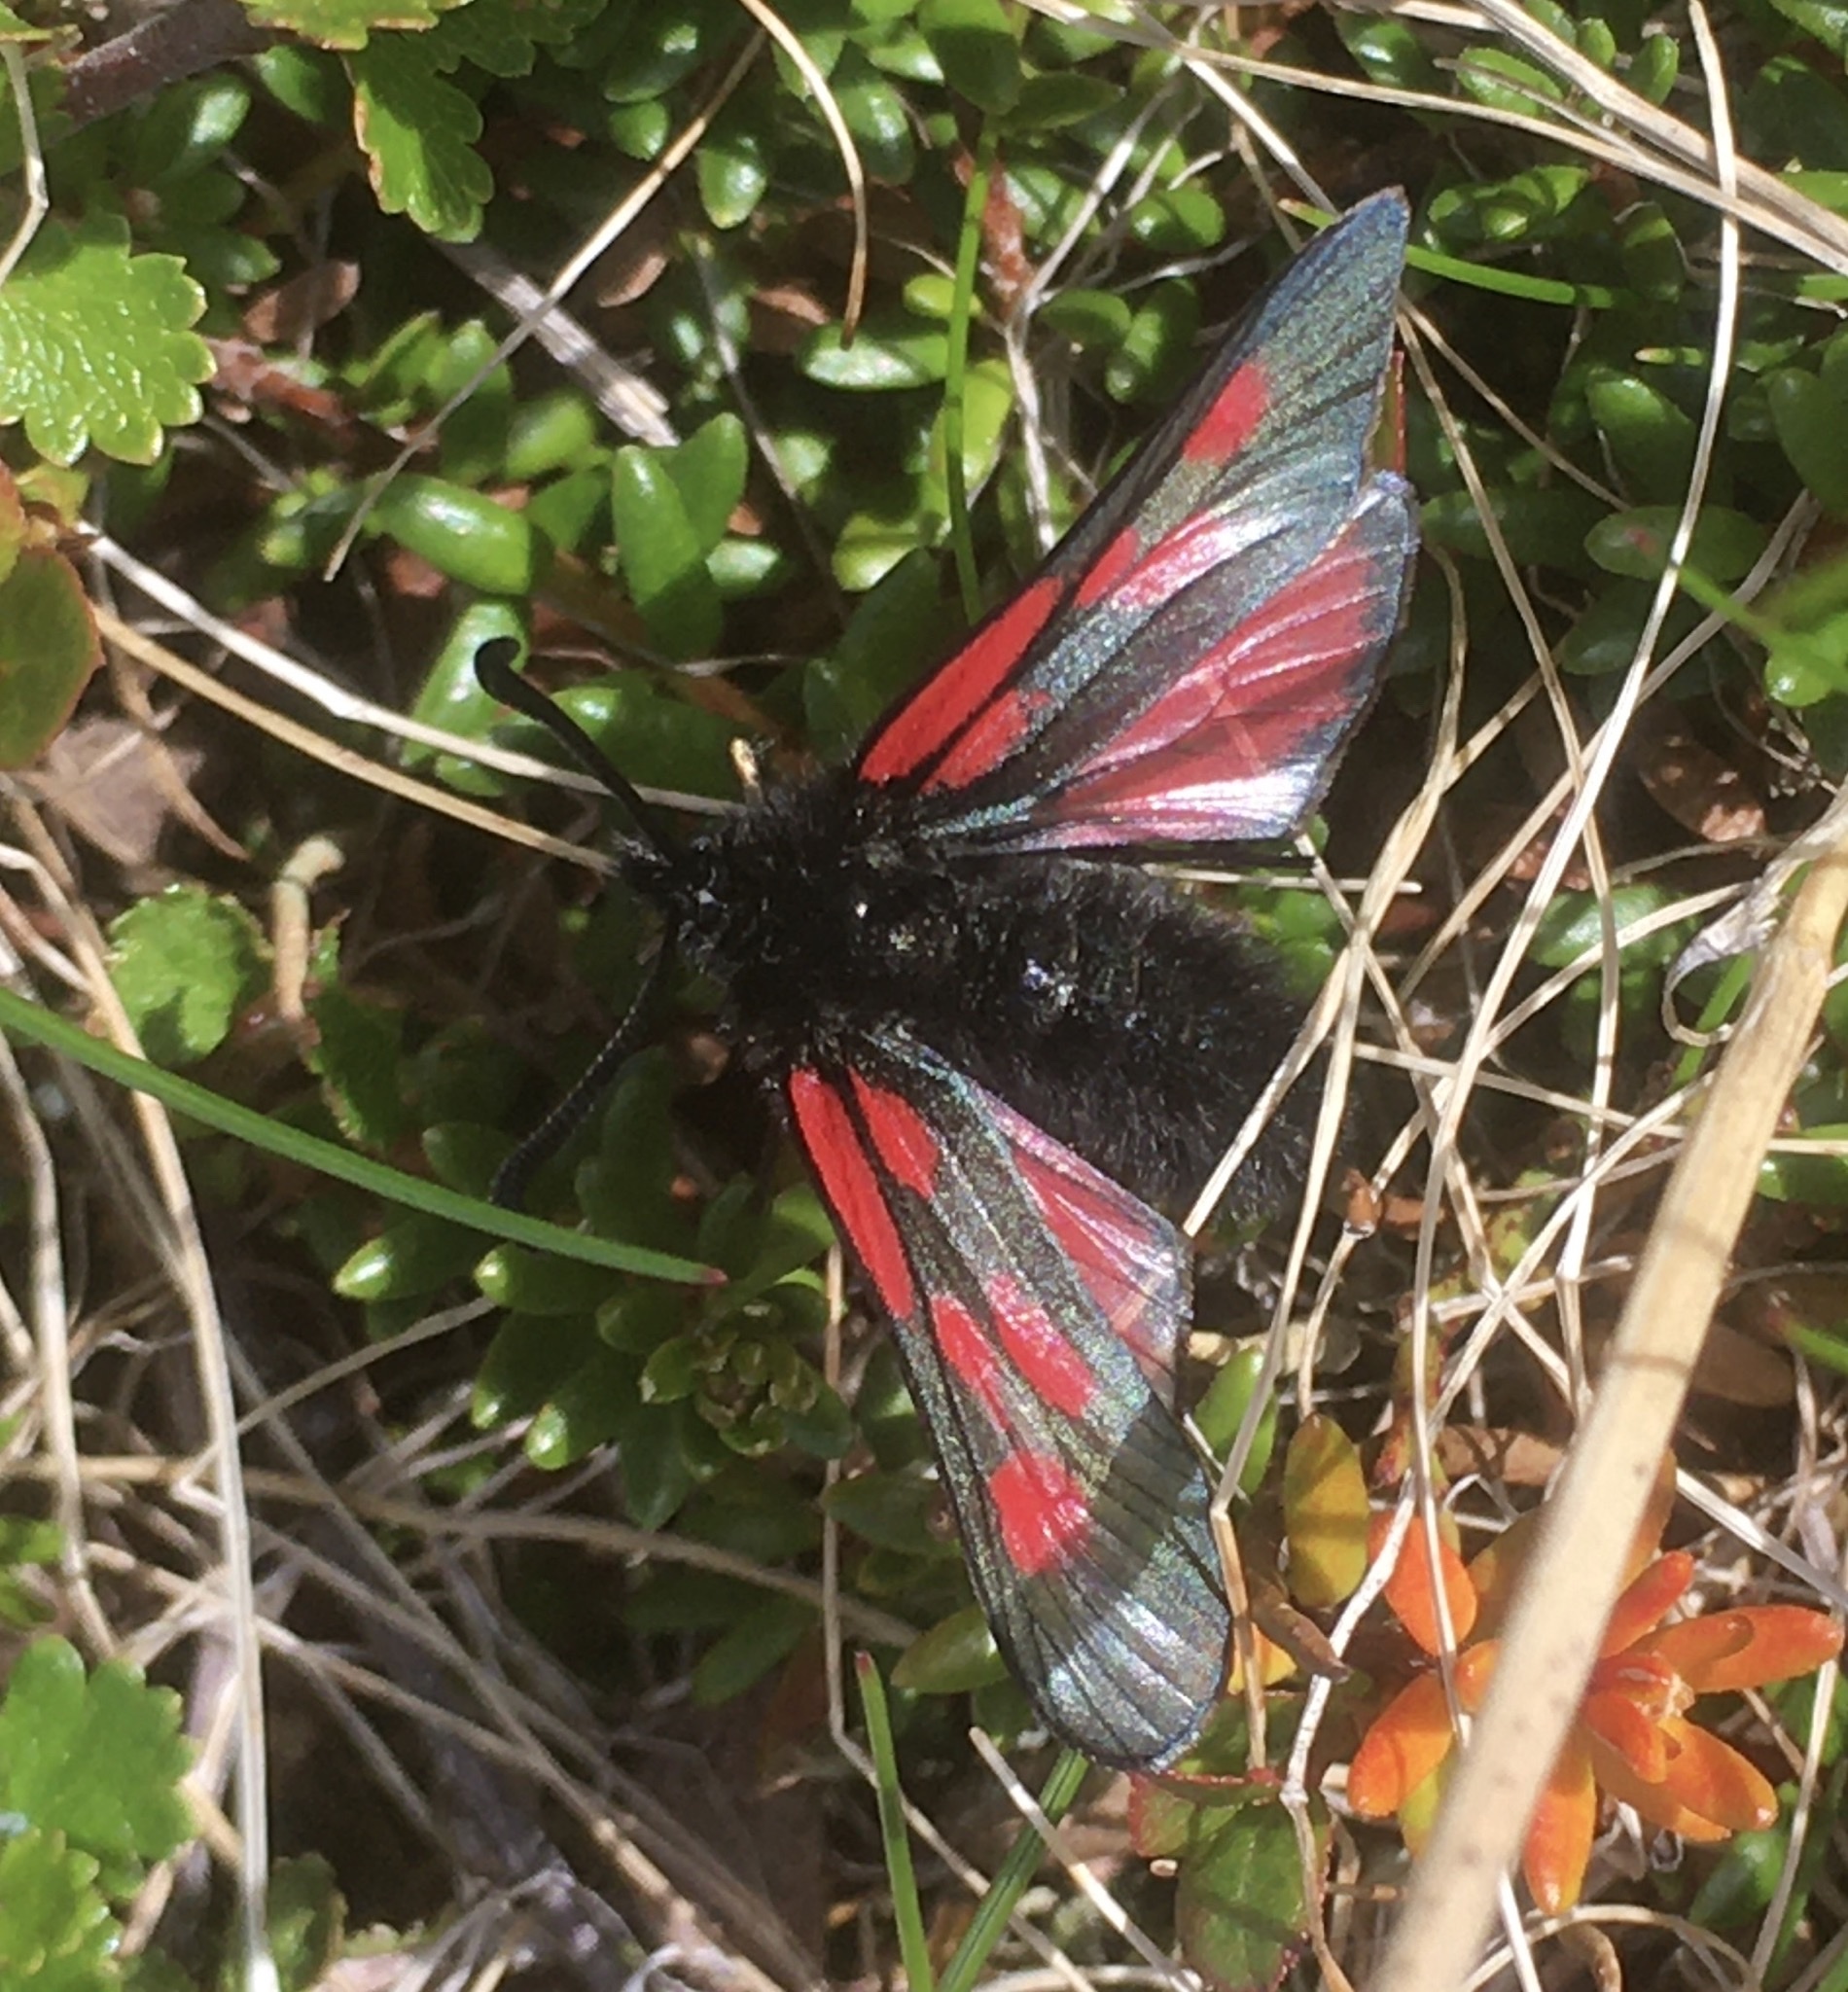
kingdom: Animalia
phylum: Arthropoda
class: Insecta
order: Lepidoptera
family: Zygaenidae
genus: Zygaena
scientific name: Zygaena exulans
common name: Scotch burnet
